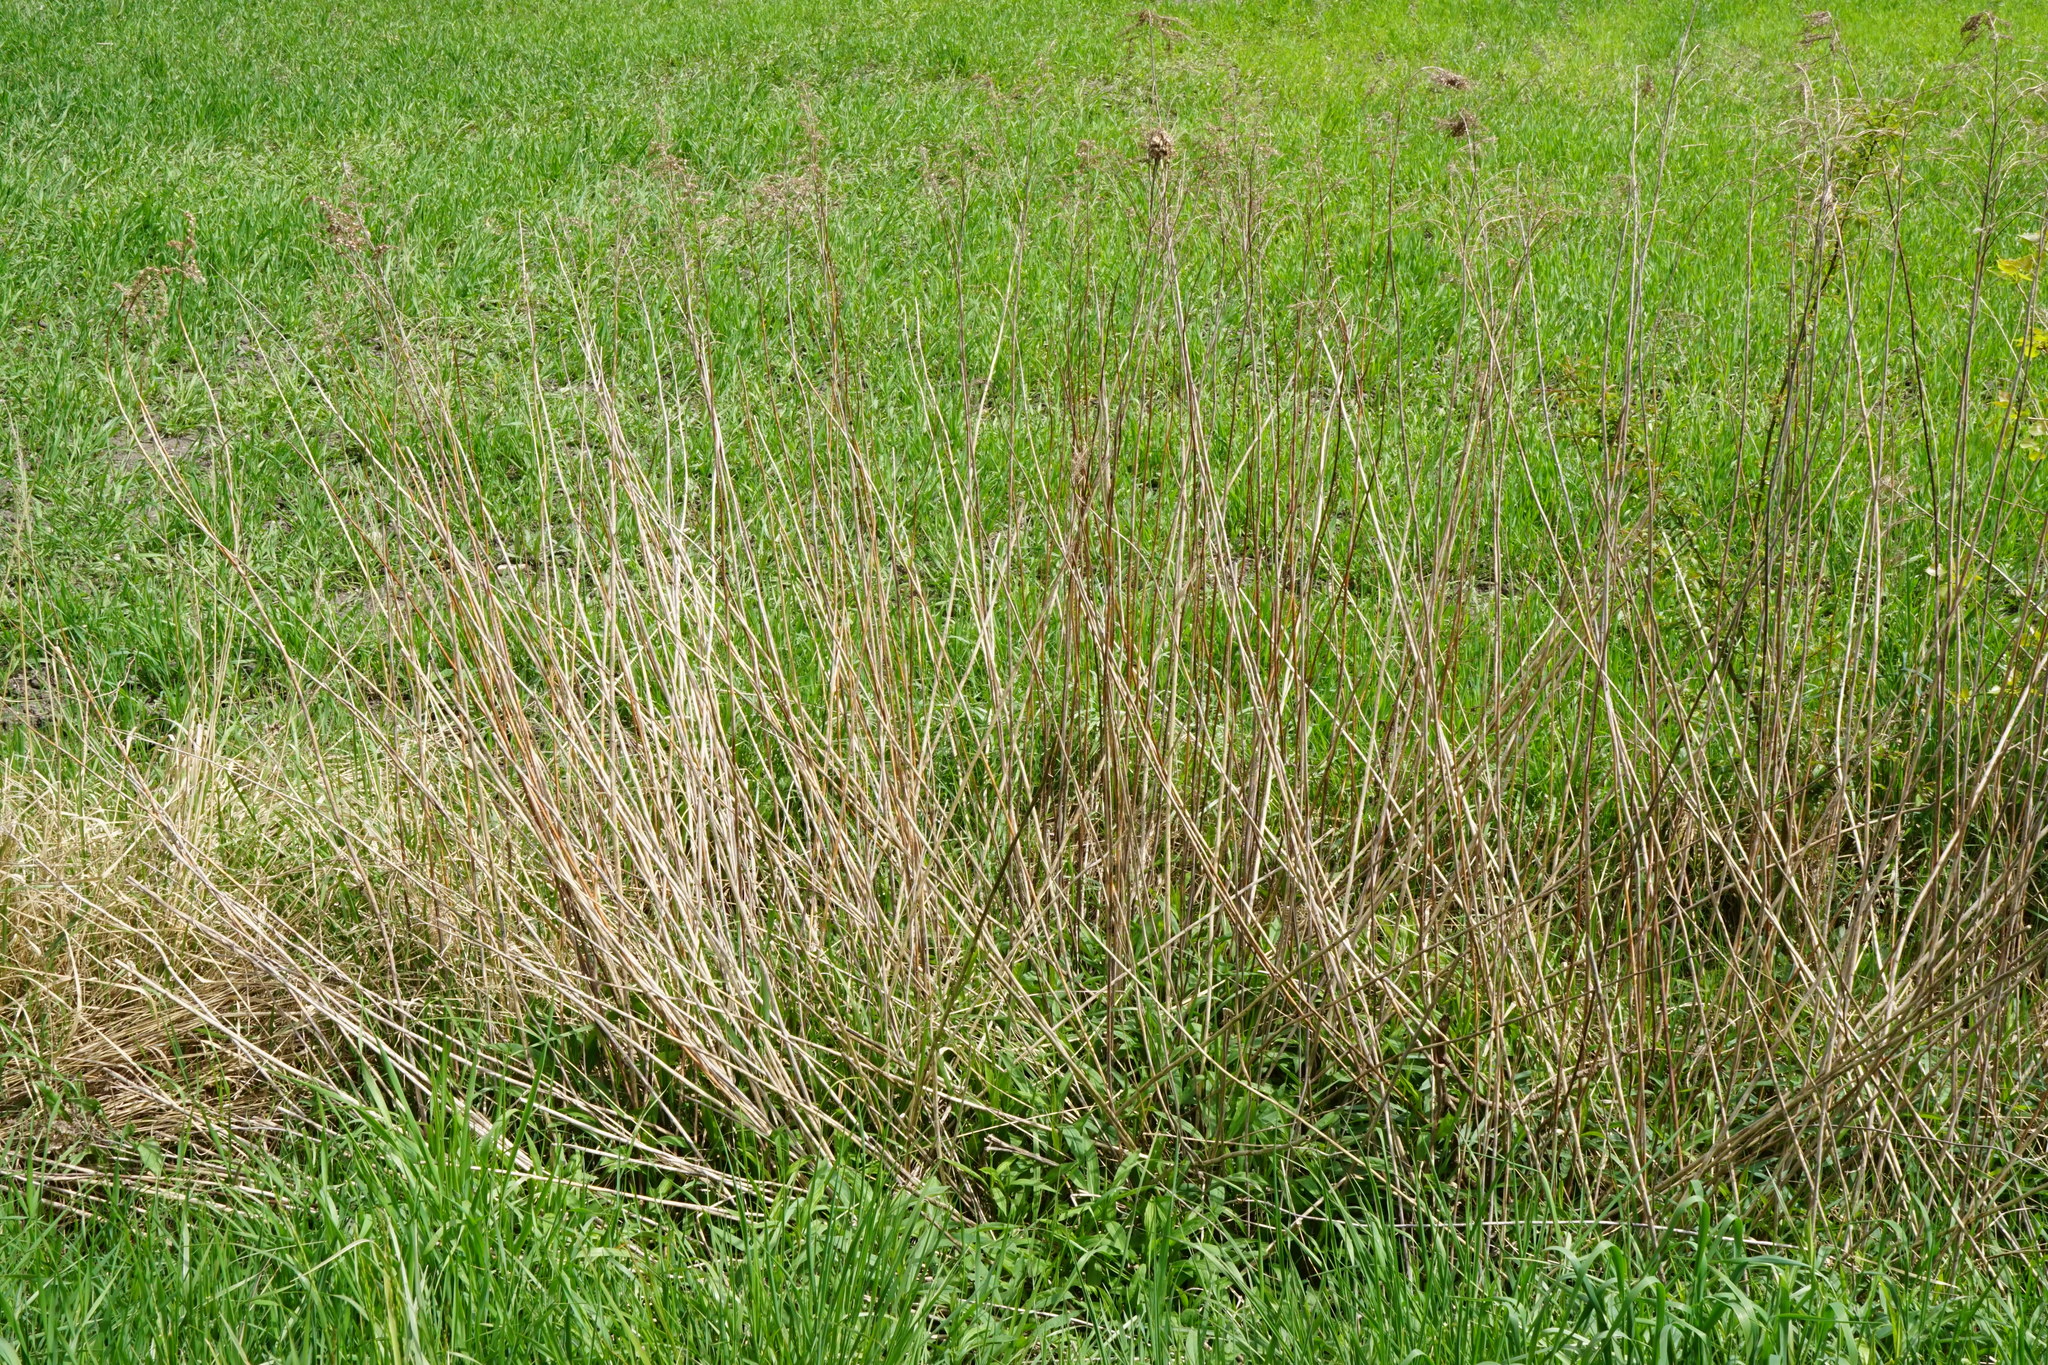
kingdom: Plantae
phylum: Tracheophyta
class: Magnoliopsida
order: Asterales
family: Asteraceae
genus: Solidago
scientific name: Solidago gigantea
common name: Giant goldenrod
